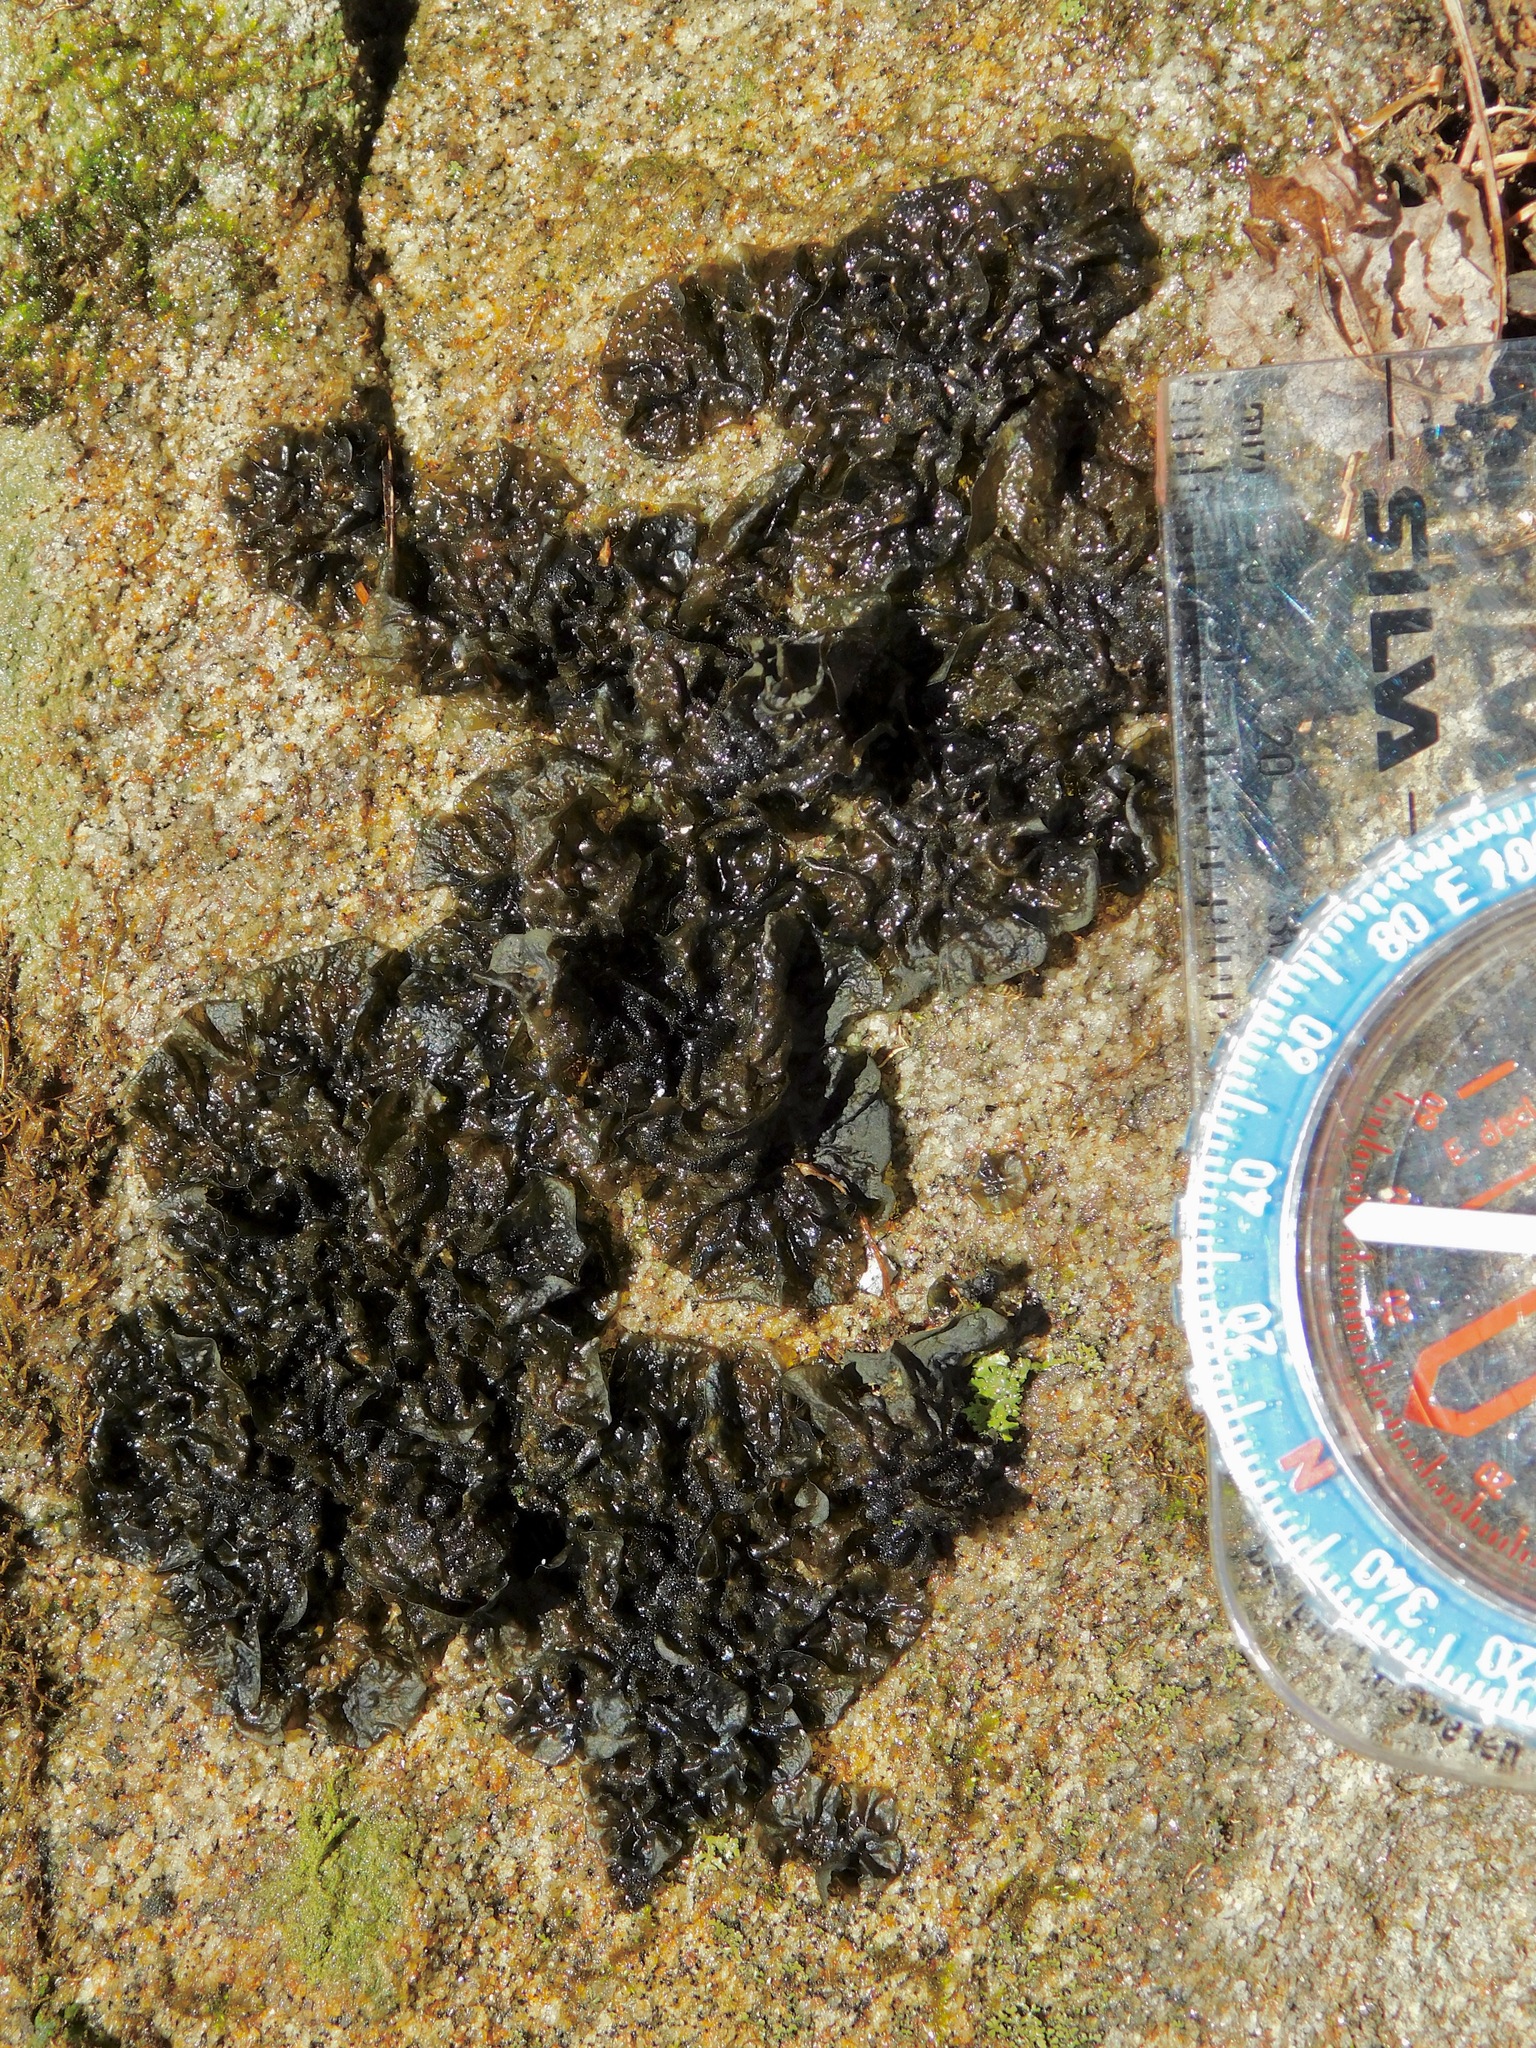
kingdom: Fungi
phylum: Ascomycota
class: Lecanoromycetes
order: Peltigerales
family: Collemataceae
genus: Collema
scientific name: Collema subflaccidum
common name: Tree jelly
